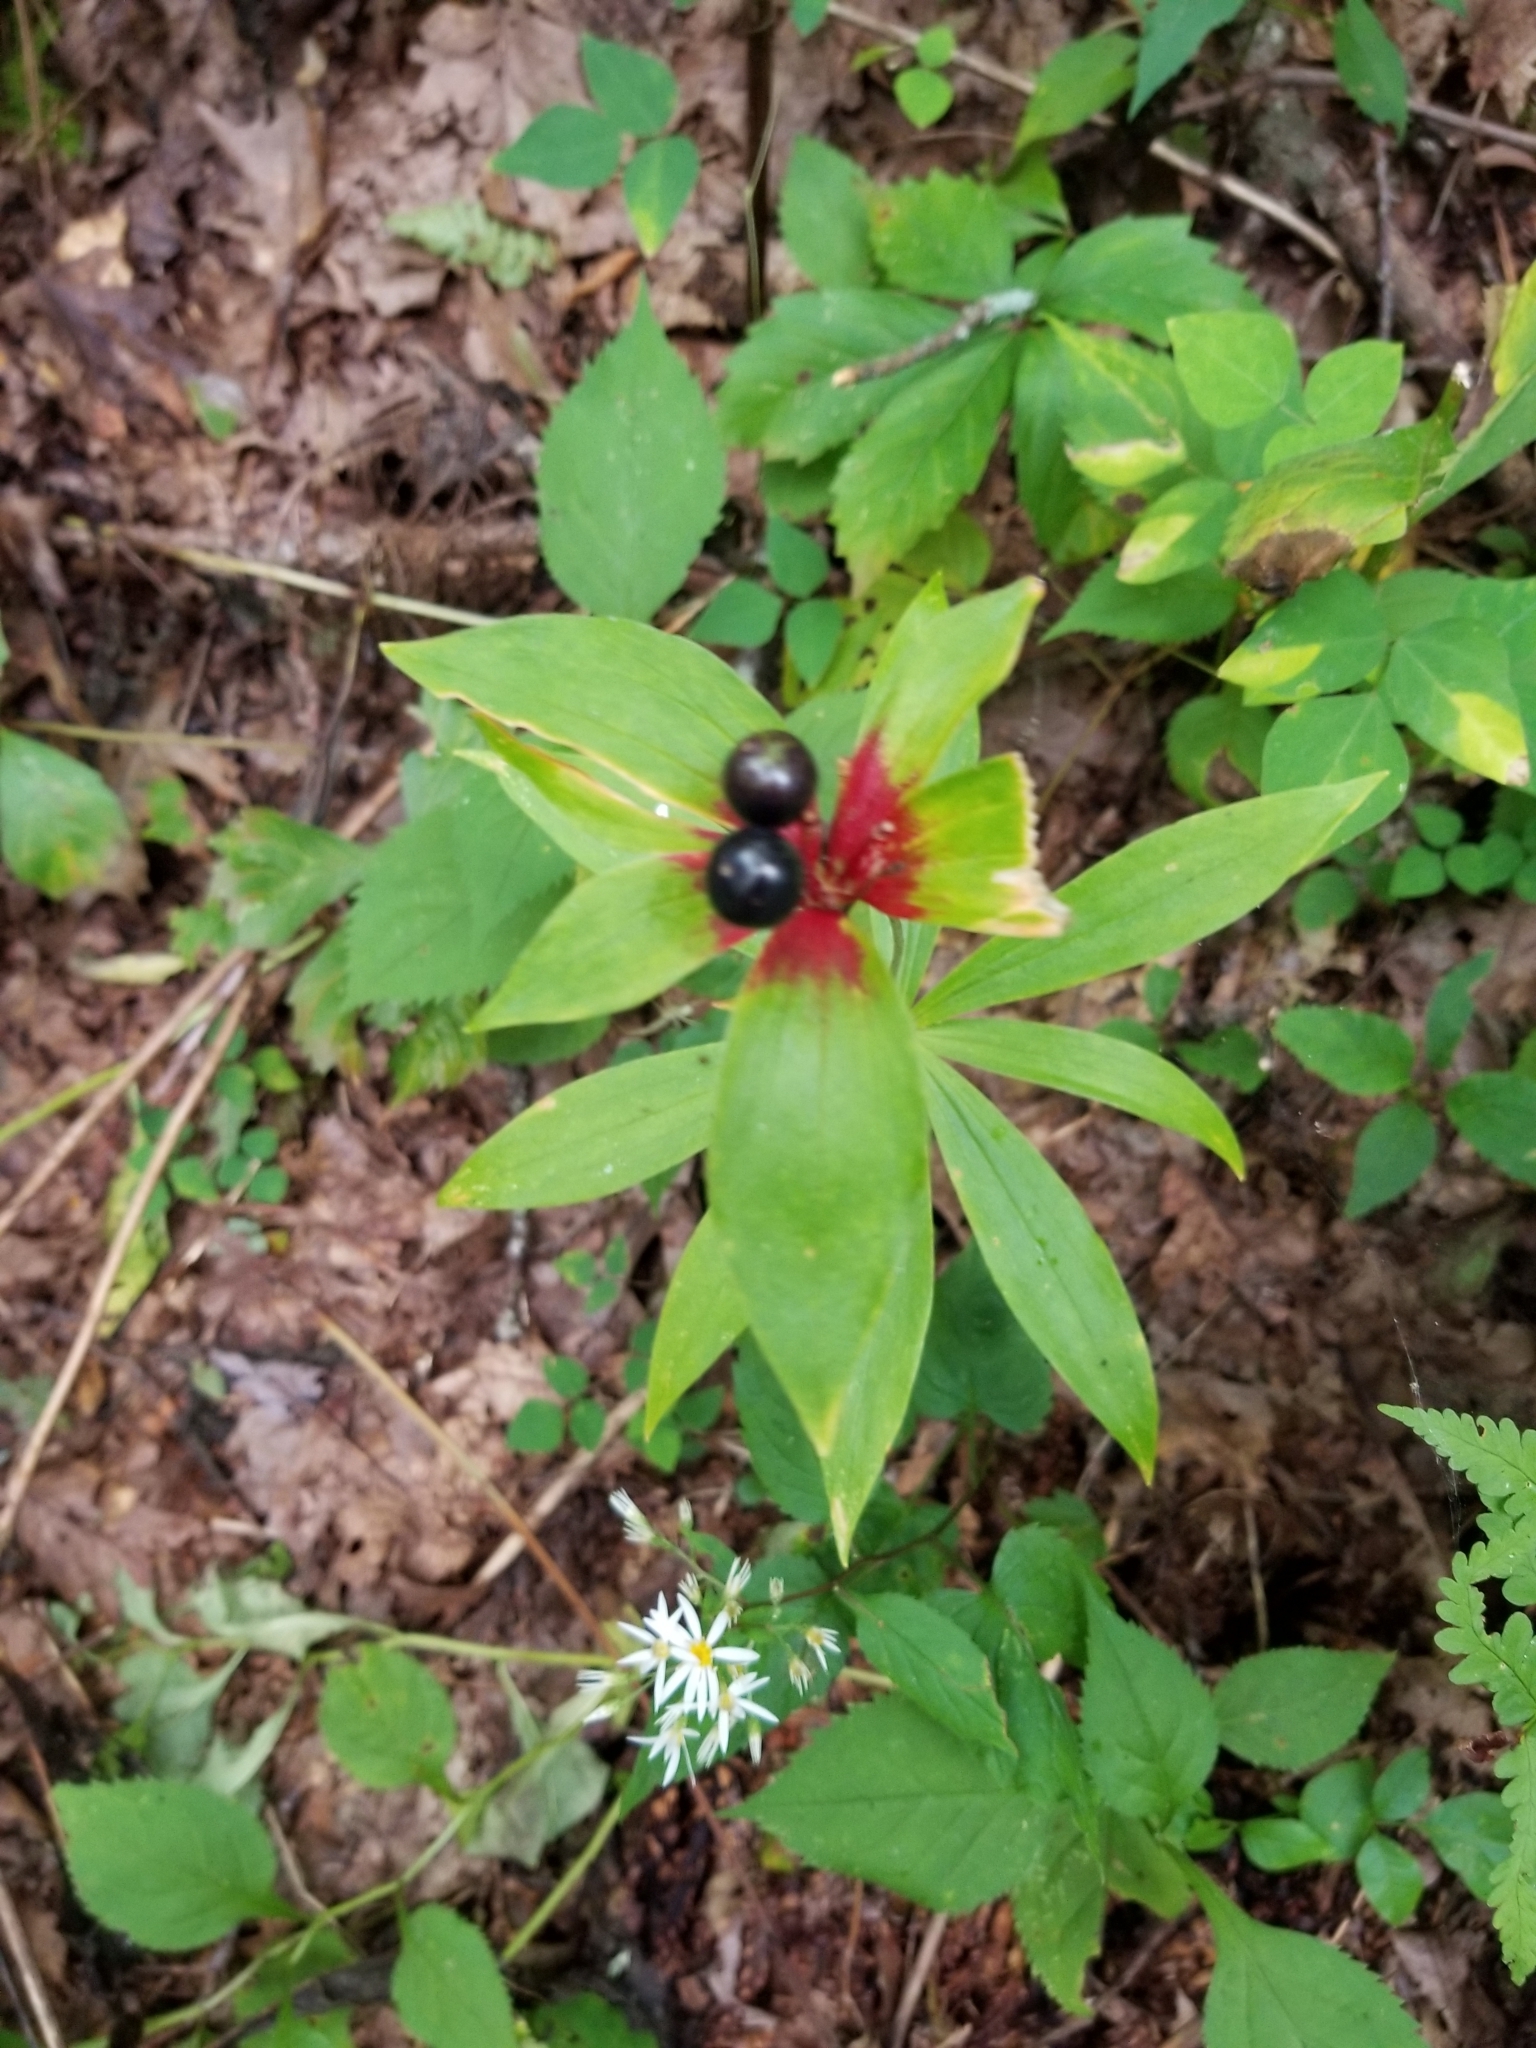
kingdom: Plantae
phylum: Tracheophyta
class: Liliopsida
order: Liliales
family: Liliaceae
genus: Medeola
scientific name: Medeola virginiana
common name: Indian cucumber-root
